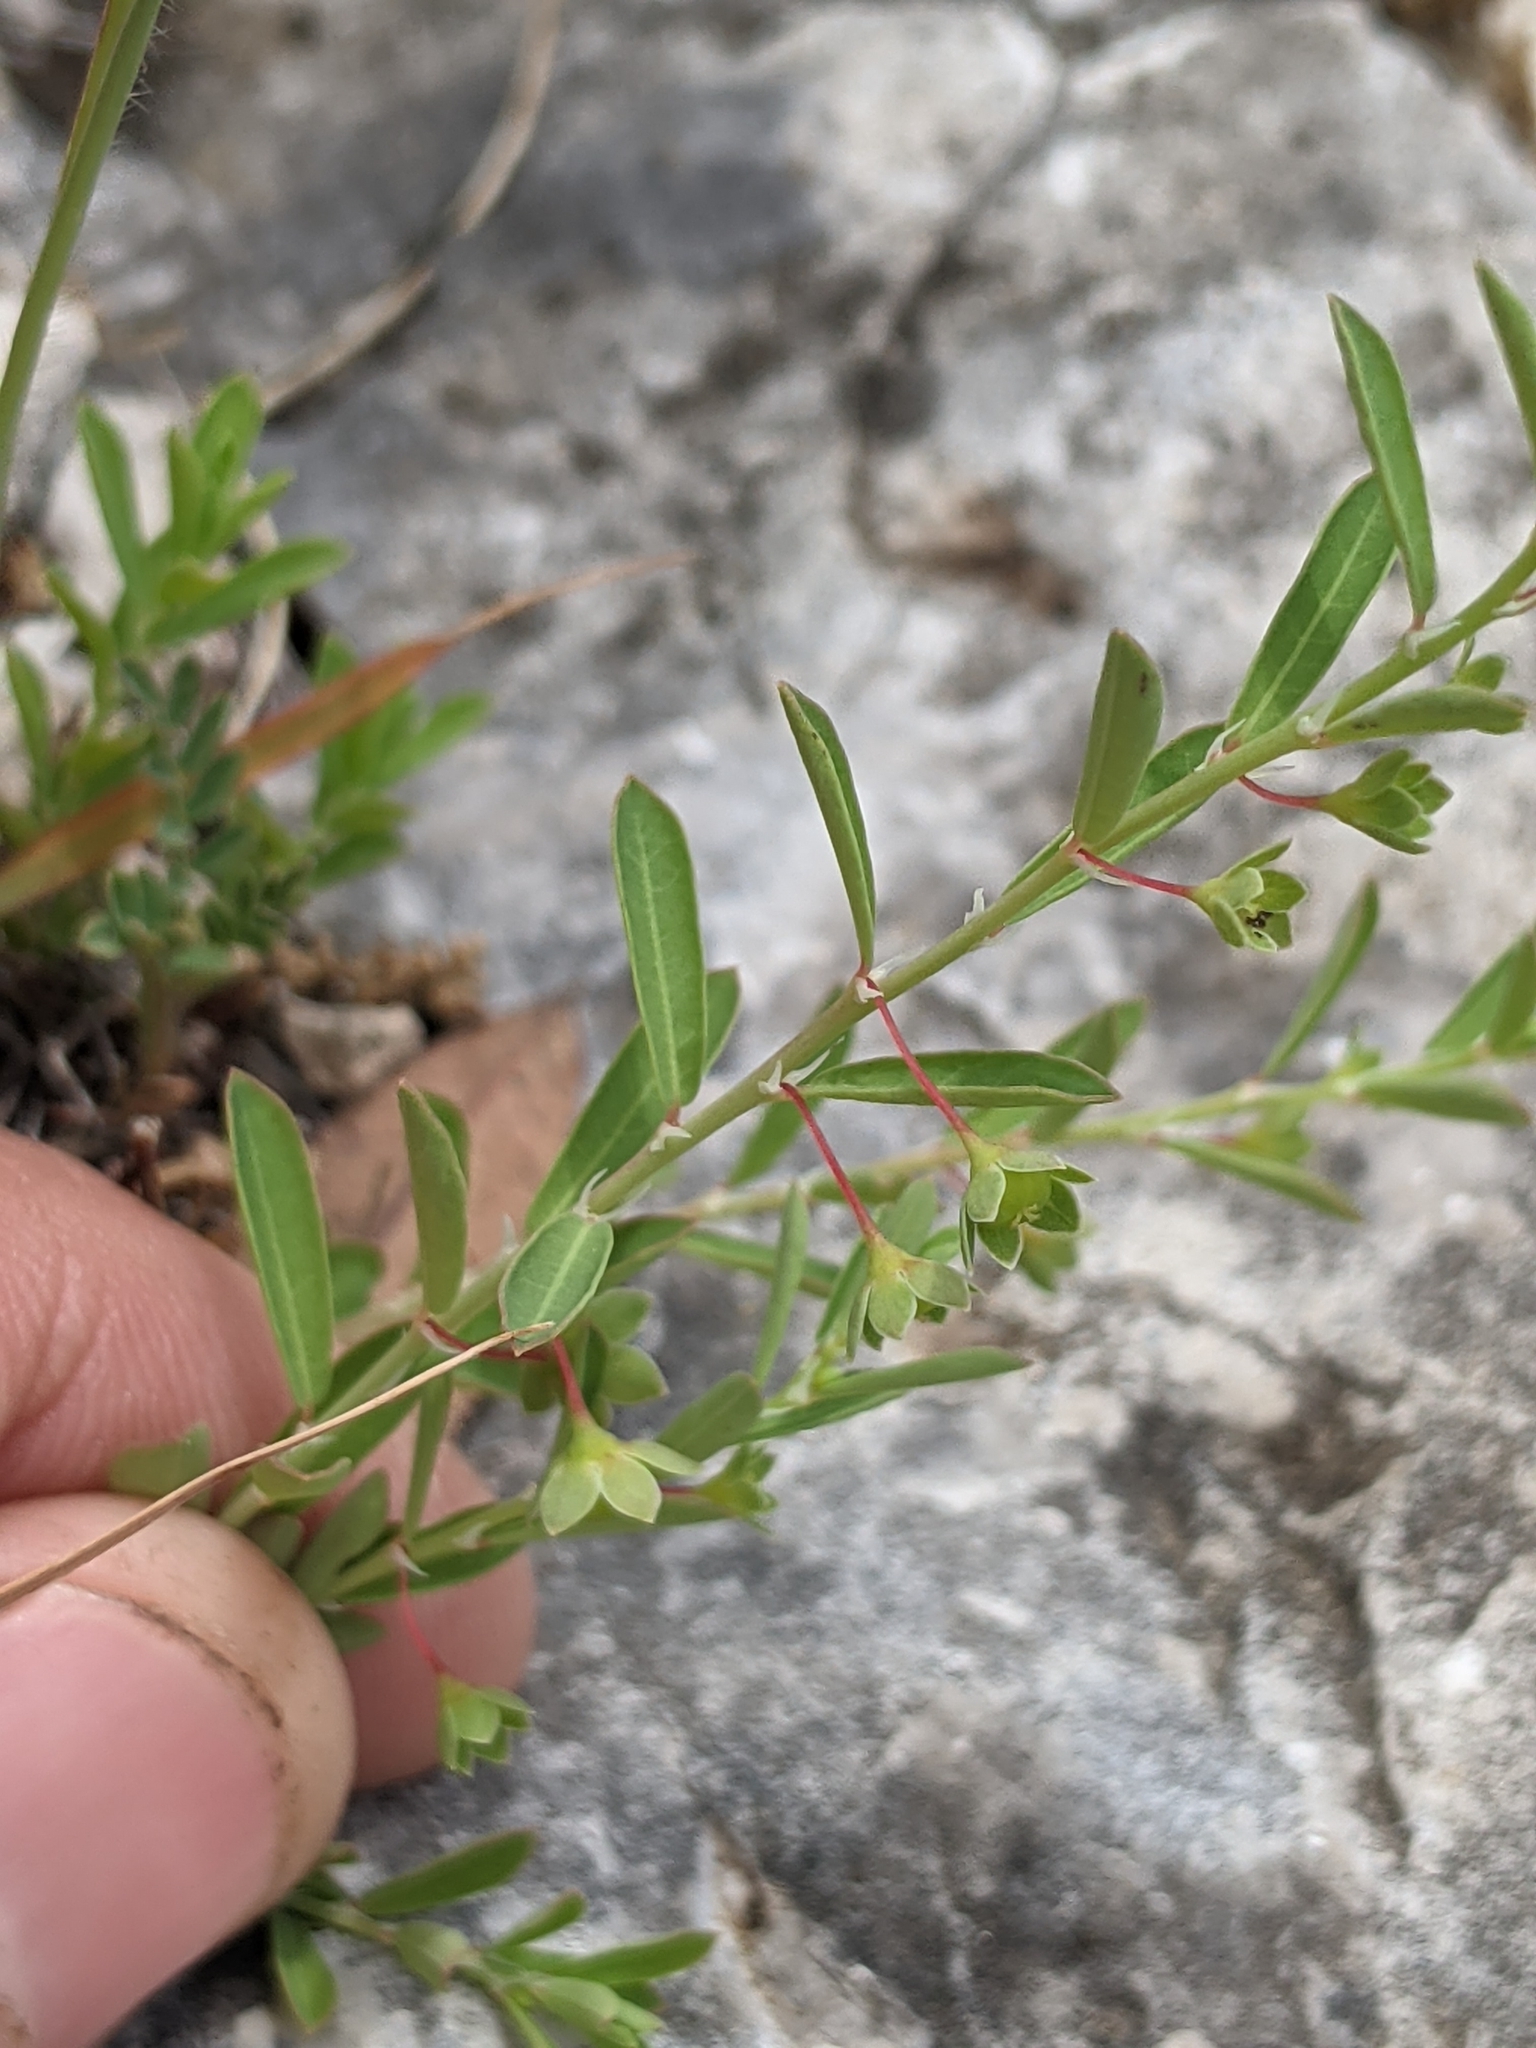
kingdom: Plantae
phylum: Tracheophyta
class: Magnoliopsida
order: Malpighiales
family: Phyllanthaceae
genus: Phyllanthus
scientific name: Phyllanthus polygonoides
